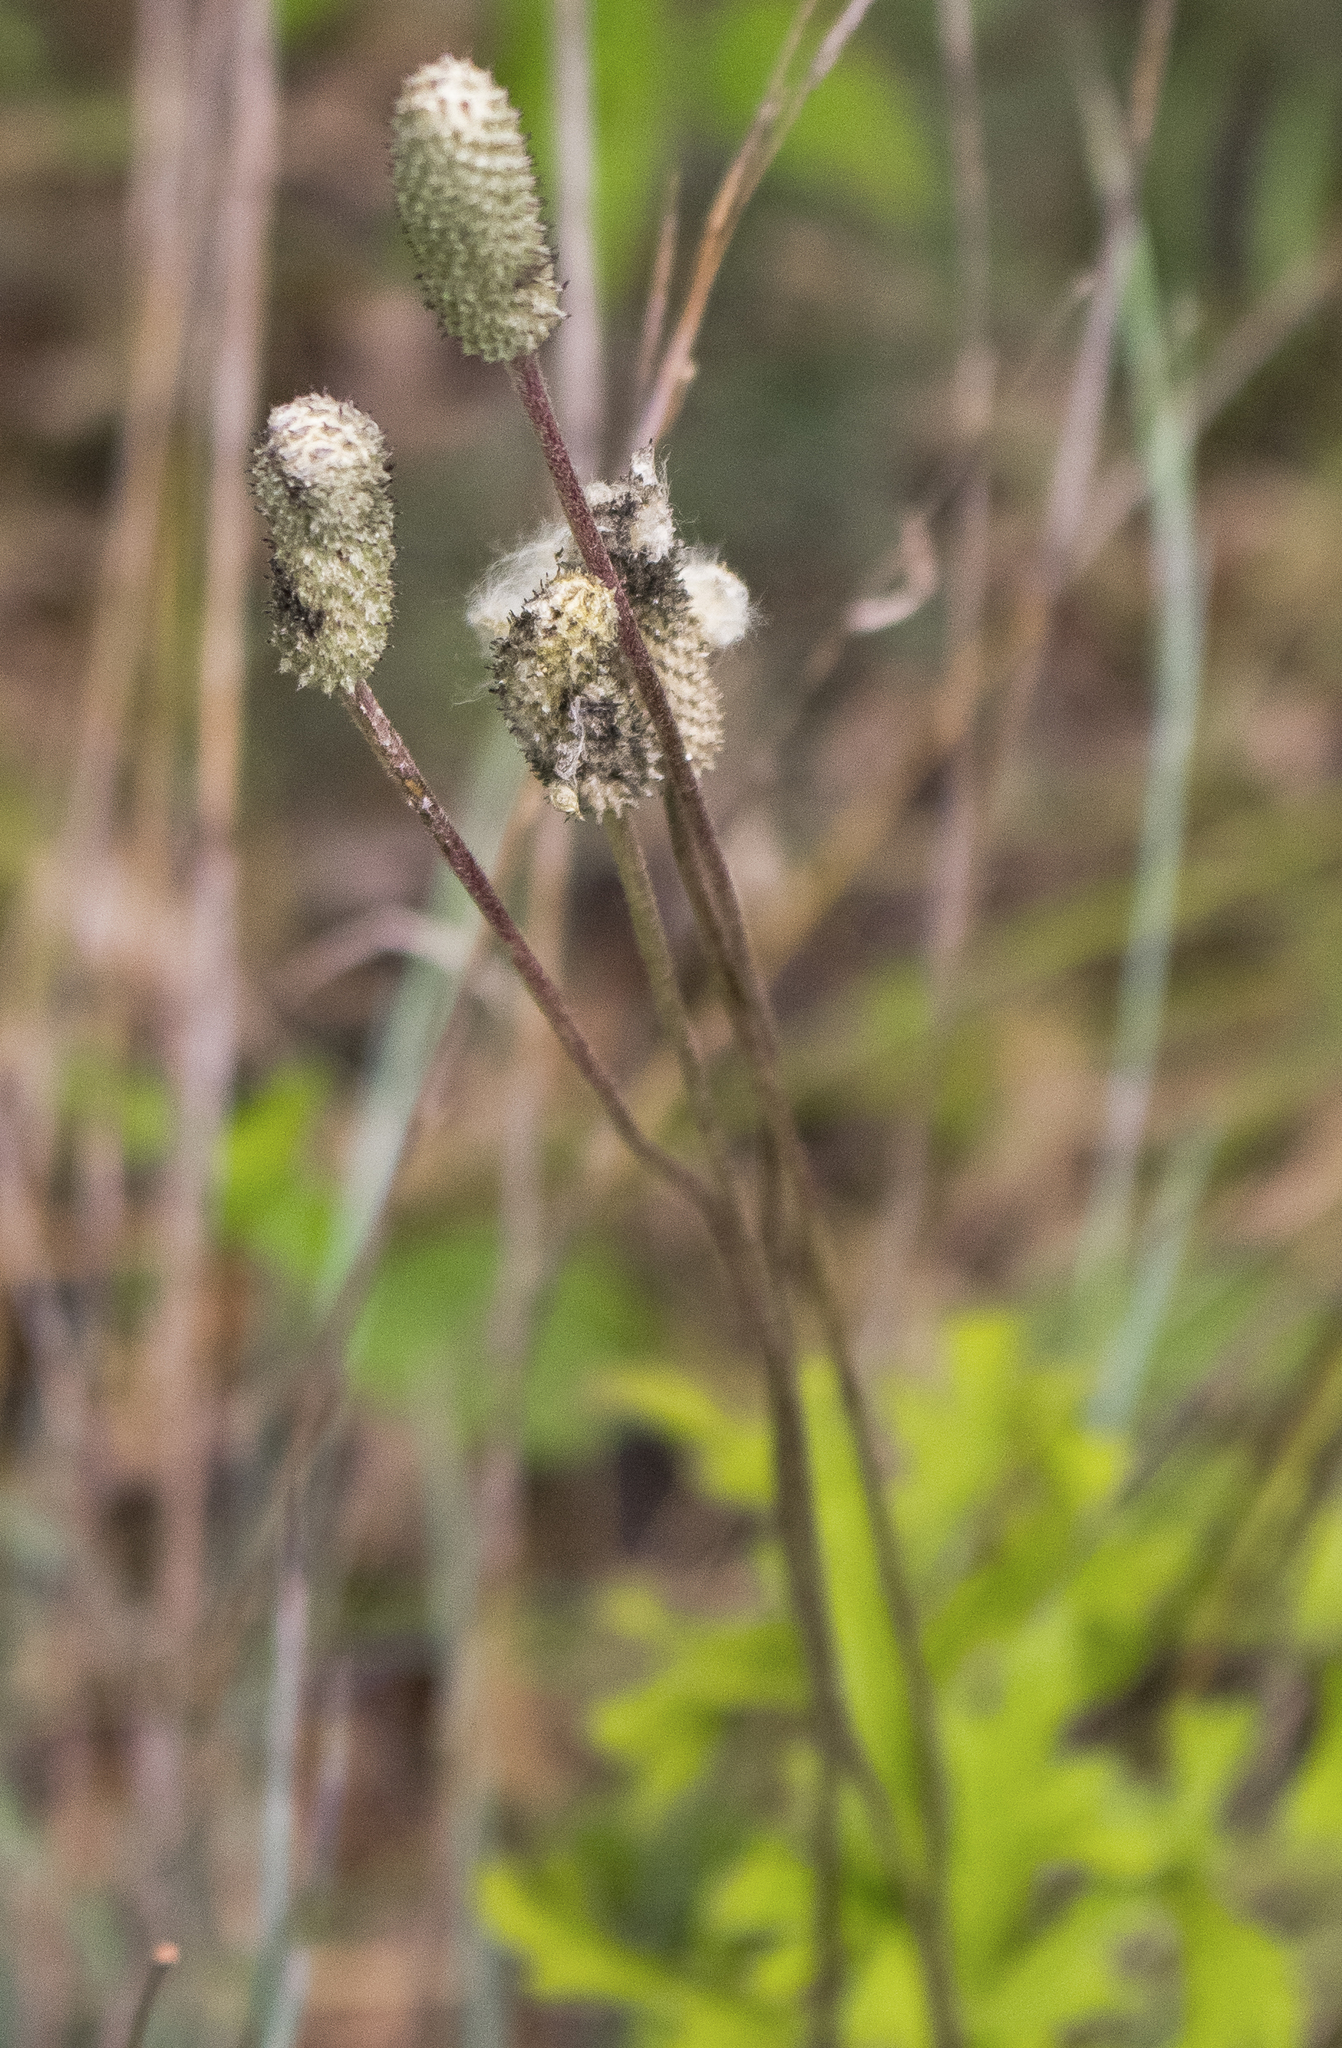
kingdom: Plantae
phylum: Tracheophyta
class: Magnoliopsida
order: Ranunculales
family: Ranunculaceae
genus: Anemone
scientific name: Anemone cylindrica
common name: Candle anemone
